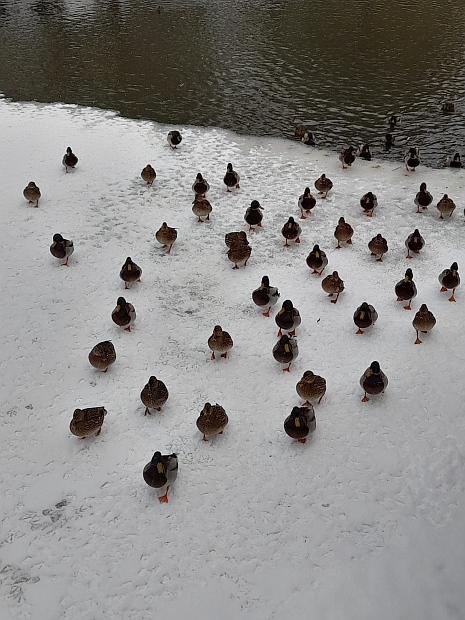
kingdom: Animalia
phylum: Chordata
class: Aves
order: Anseriformes
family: Anatidae
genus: Anas
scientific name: Anas platyrhynchos
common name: Mallard
